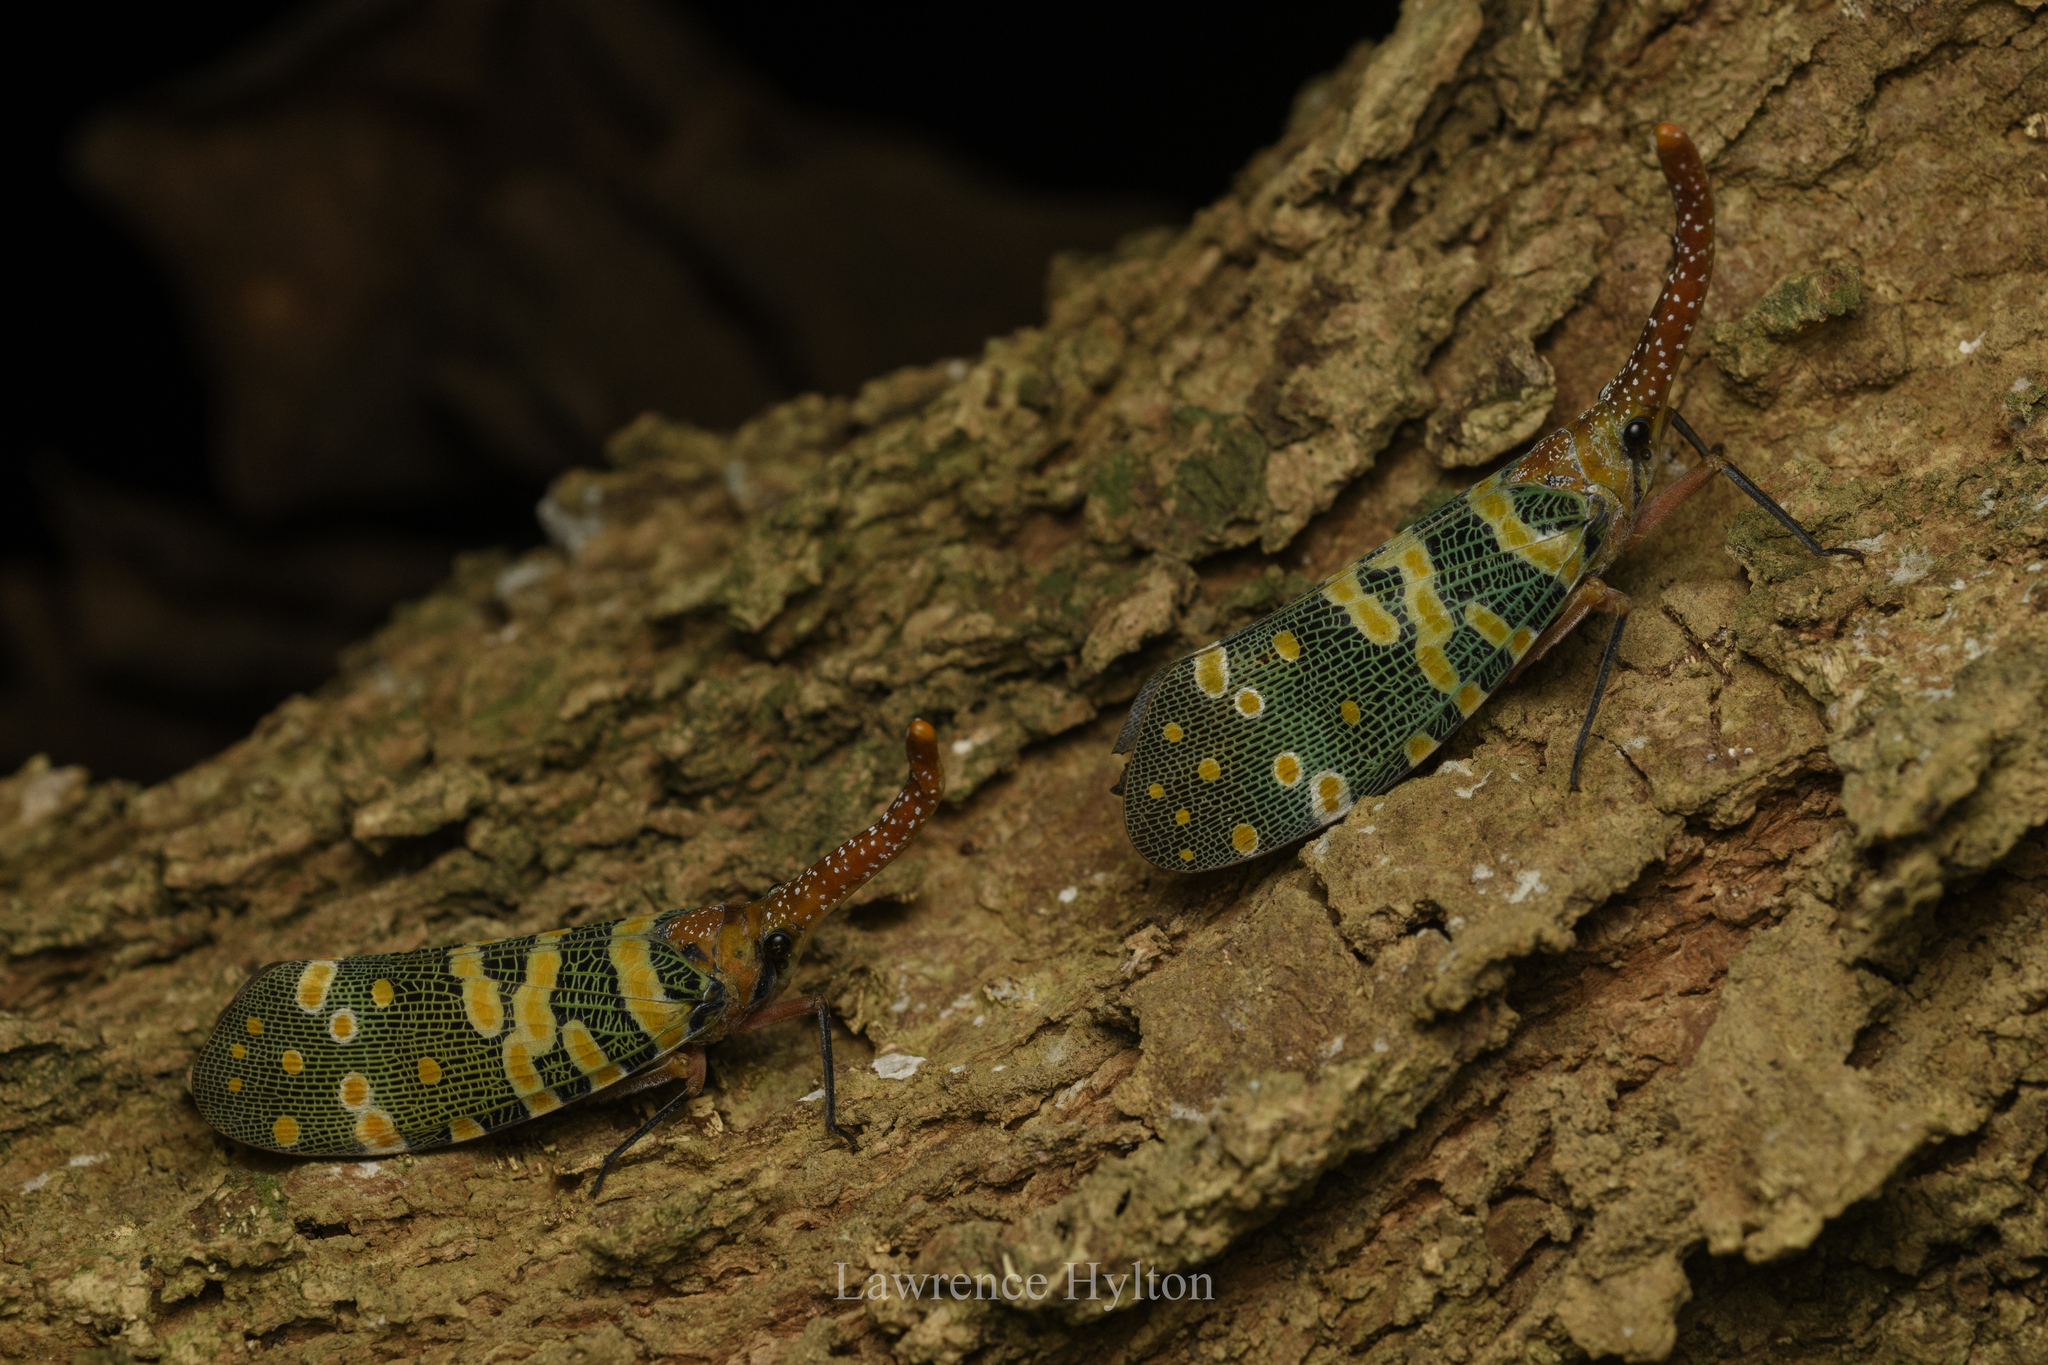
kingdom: Animalia
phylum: Arthropoda
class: Insecta
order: Hemiptera
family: Fulgoridae
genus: Pyrops
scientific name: Pyrops candelaria
